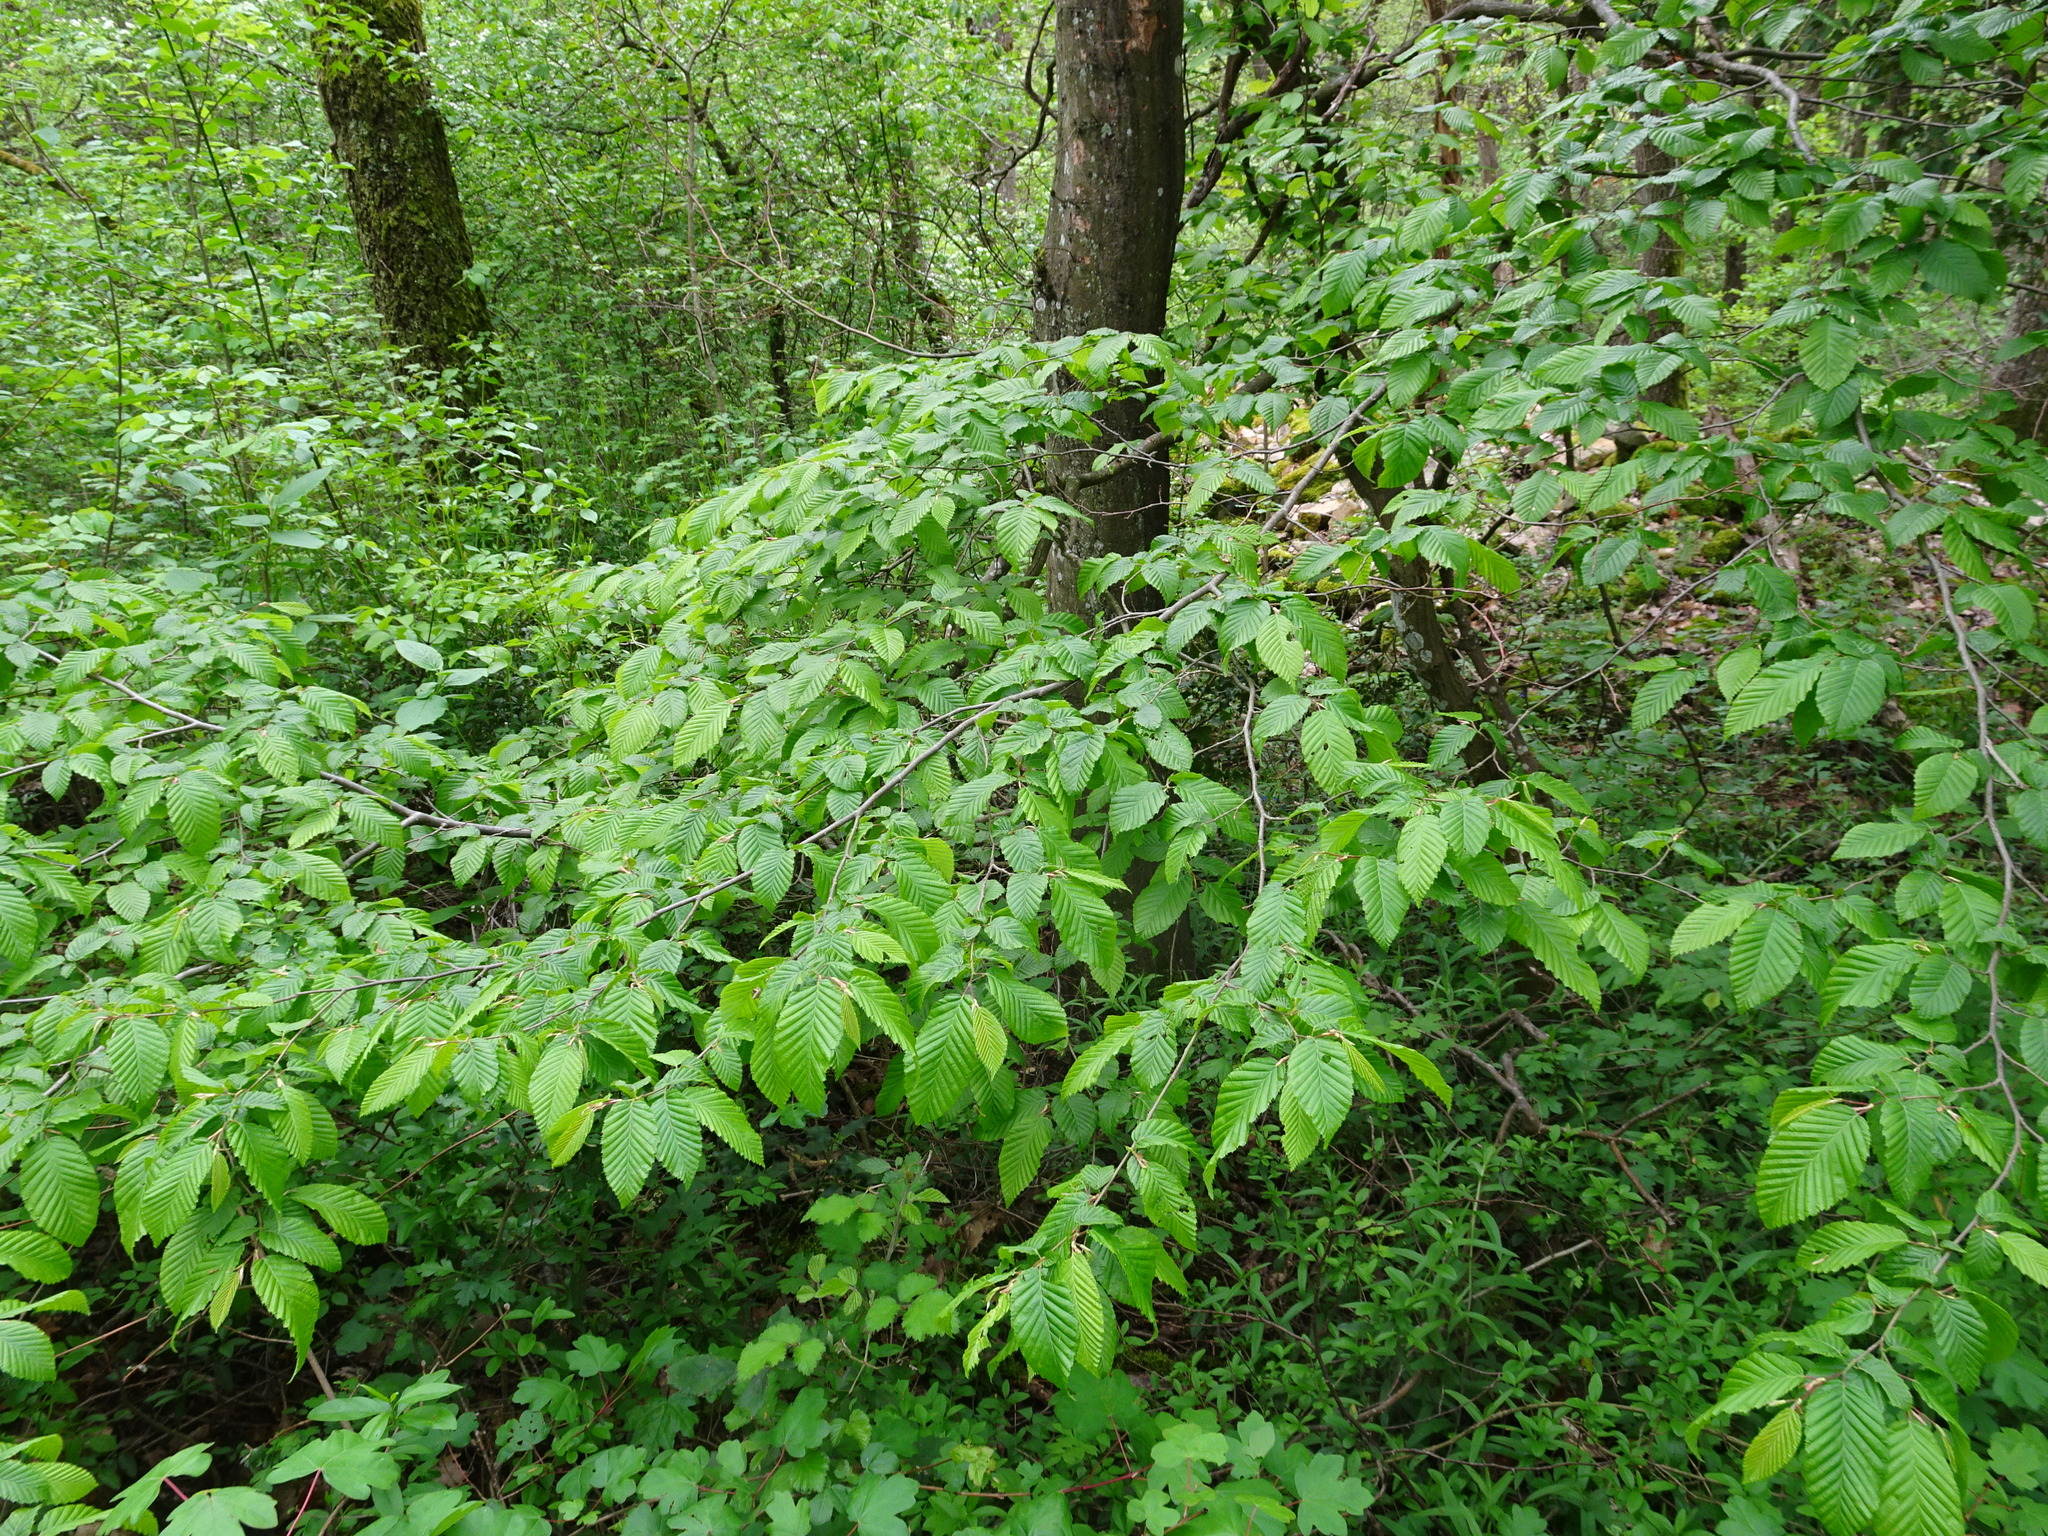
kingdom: Plantae
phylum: Tracheophyta
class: Magnoliopsida
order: Fagales
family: Betulaceae
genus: Carpinus
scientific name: Carpinus betulus
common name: Hornbeam
